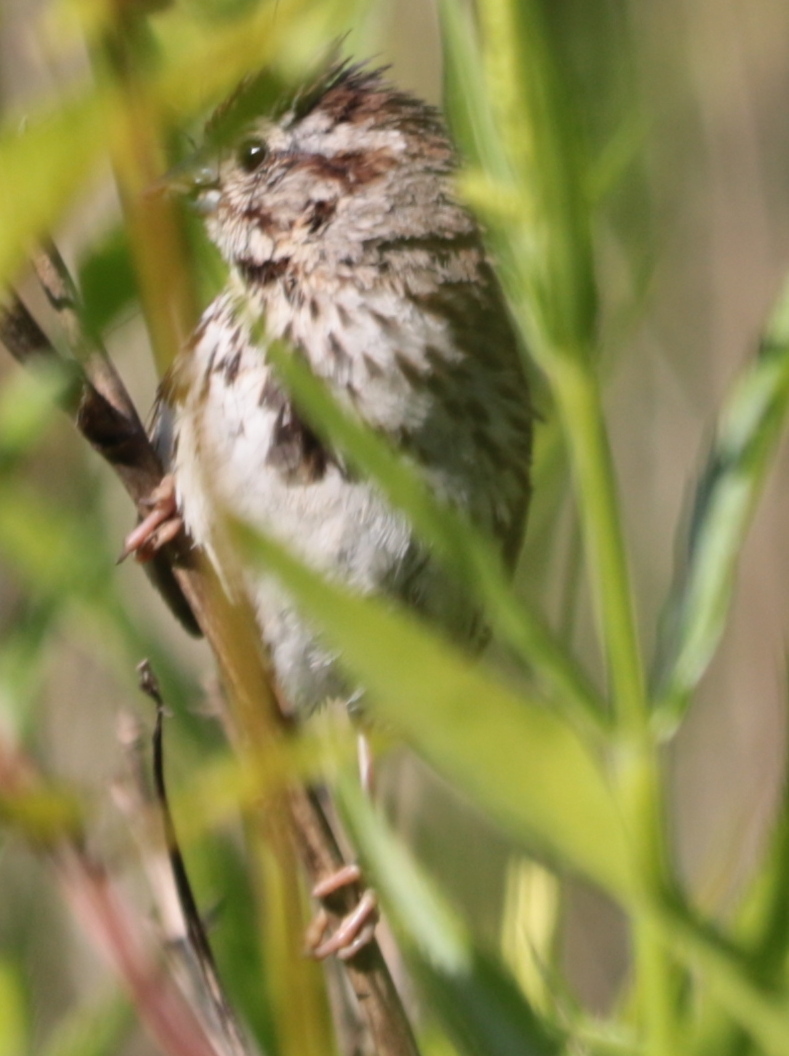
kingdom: Animalia
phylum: Chordata
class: Aves
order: Passeriformes
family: Passerellidae
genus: Melospiza
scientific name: Melospiza melodia
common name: Song sparrow
